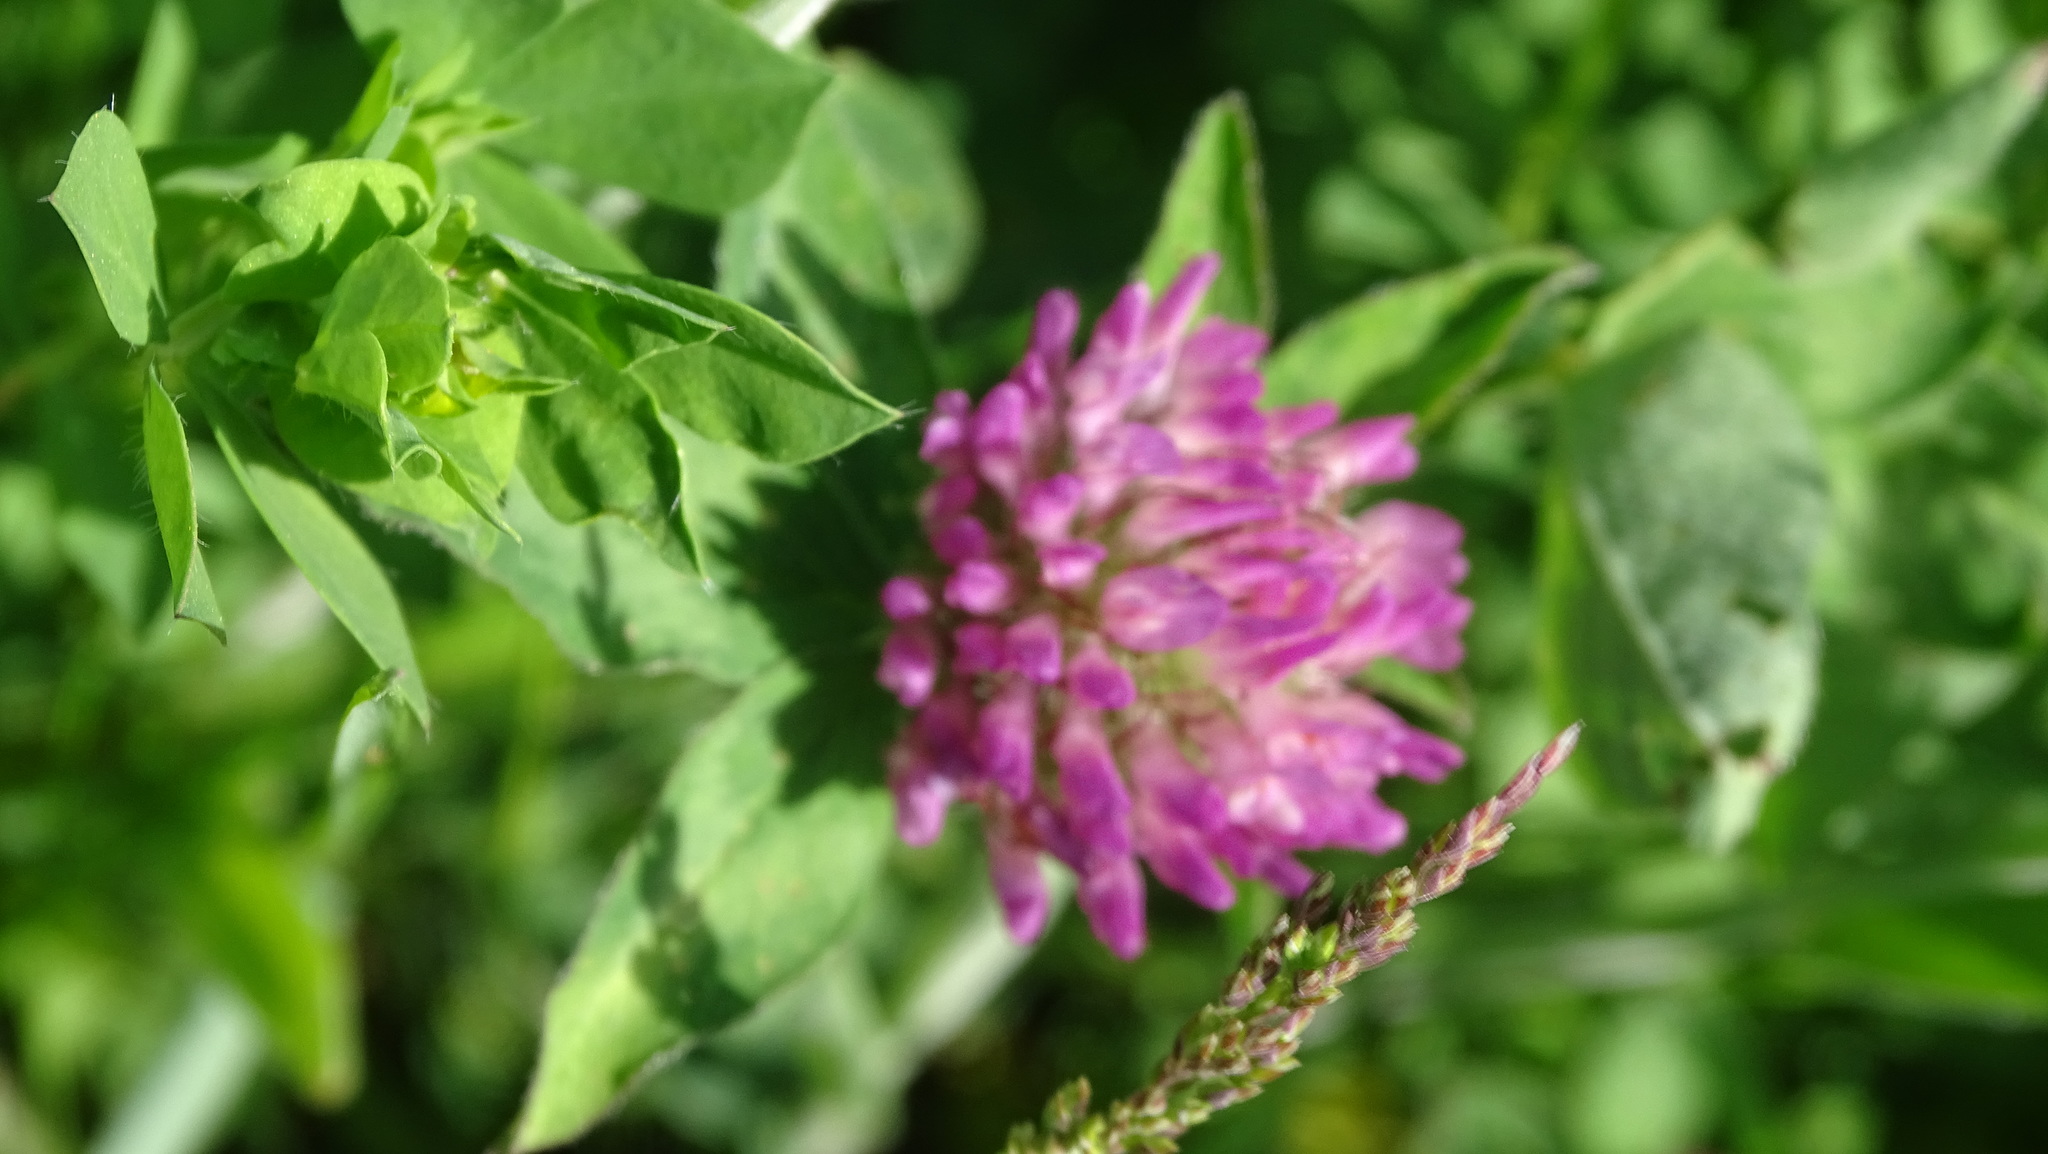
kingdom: Plantae
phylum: Tracheophyta
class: Magnoliopsida
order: Fabales
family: Fabaceae
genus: Trifolium
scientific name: Trifolium pratense
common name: Red clover
